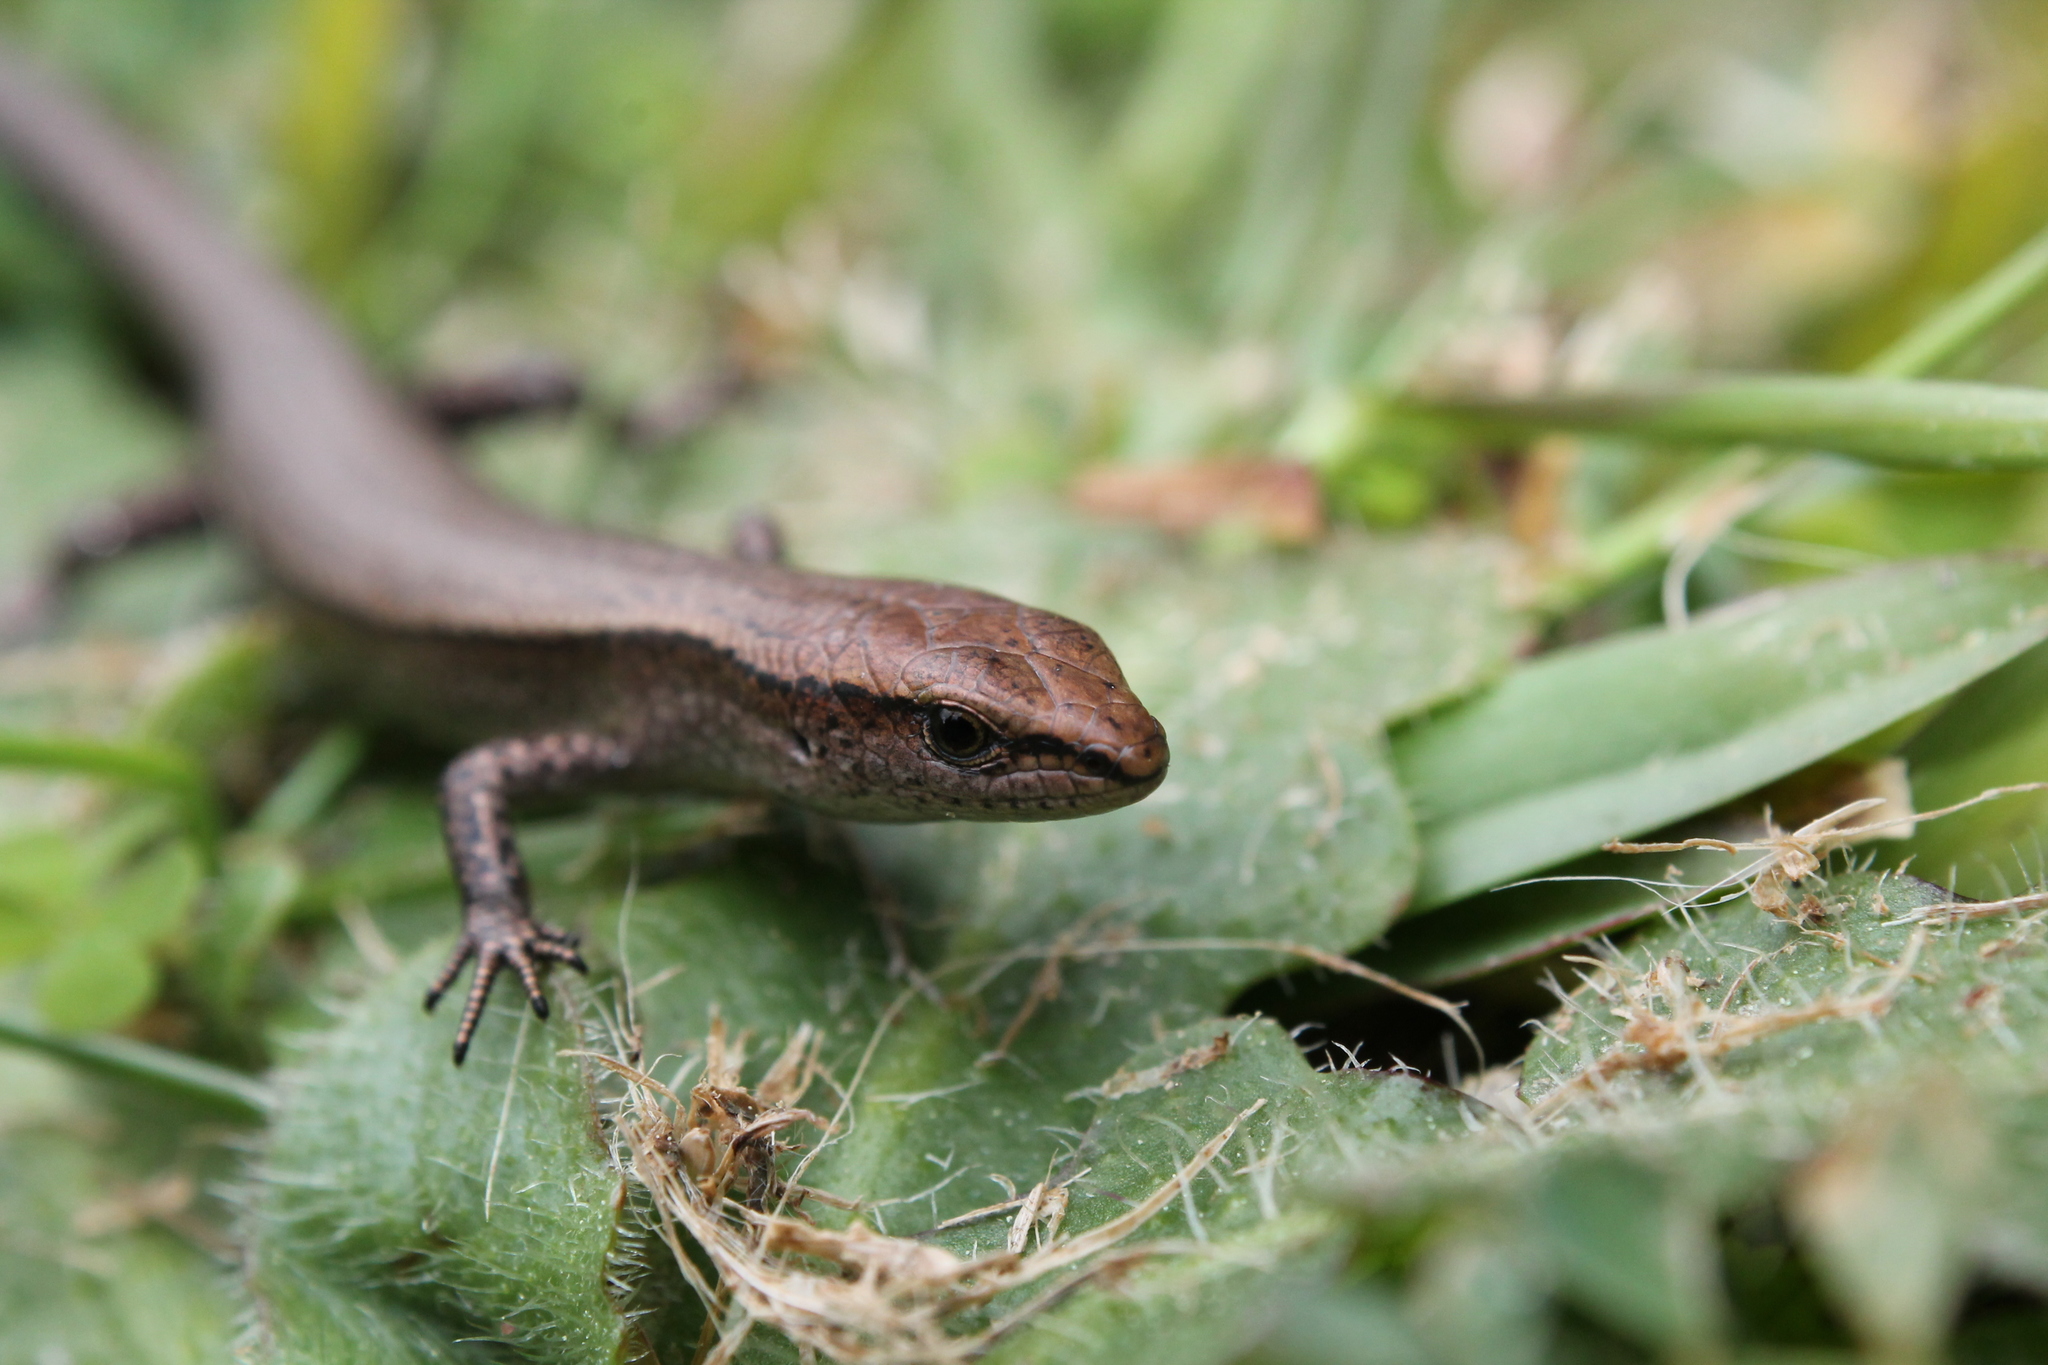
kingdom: Animalia
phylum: Chordata
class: Squamata
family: Scincidae
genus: Lampropholis
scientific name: Lampropholis delicata
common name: Plague skink
